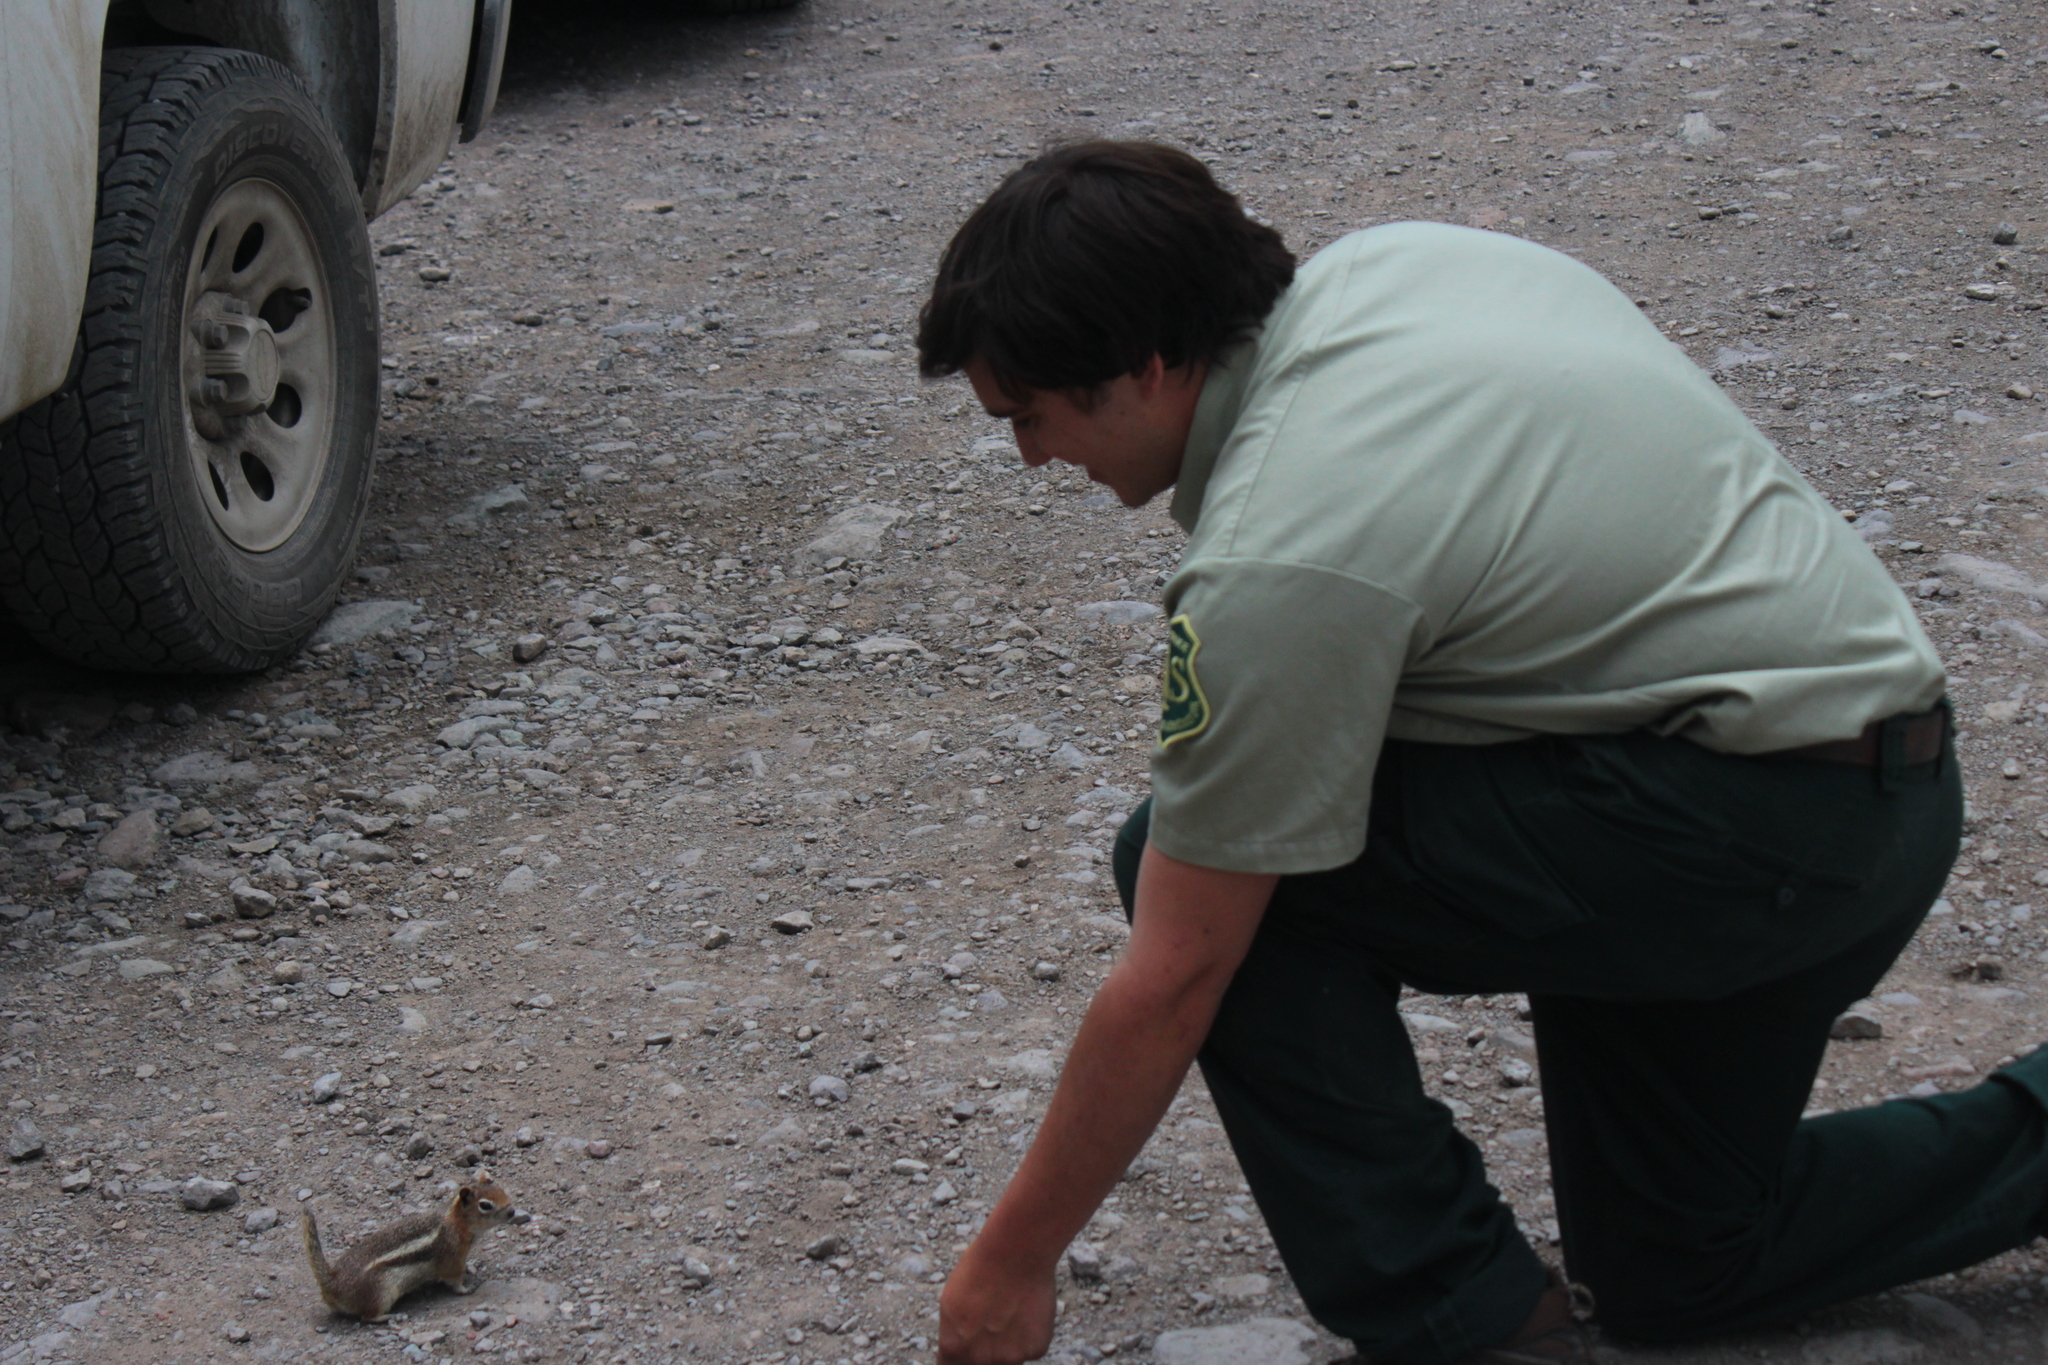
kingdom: Animalia
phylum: Chordata
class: Mammalia
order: Rodentia
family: Sciuridae
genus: Callospermophilus
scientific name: Callospermophilus lateralis
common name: Golden-mantled ground squirrel
